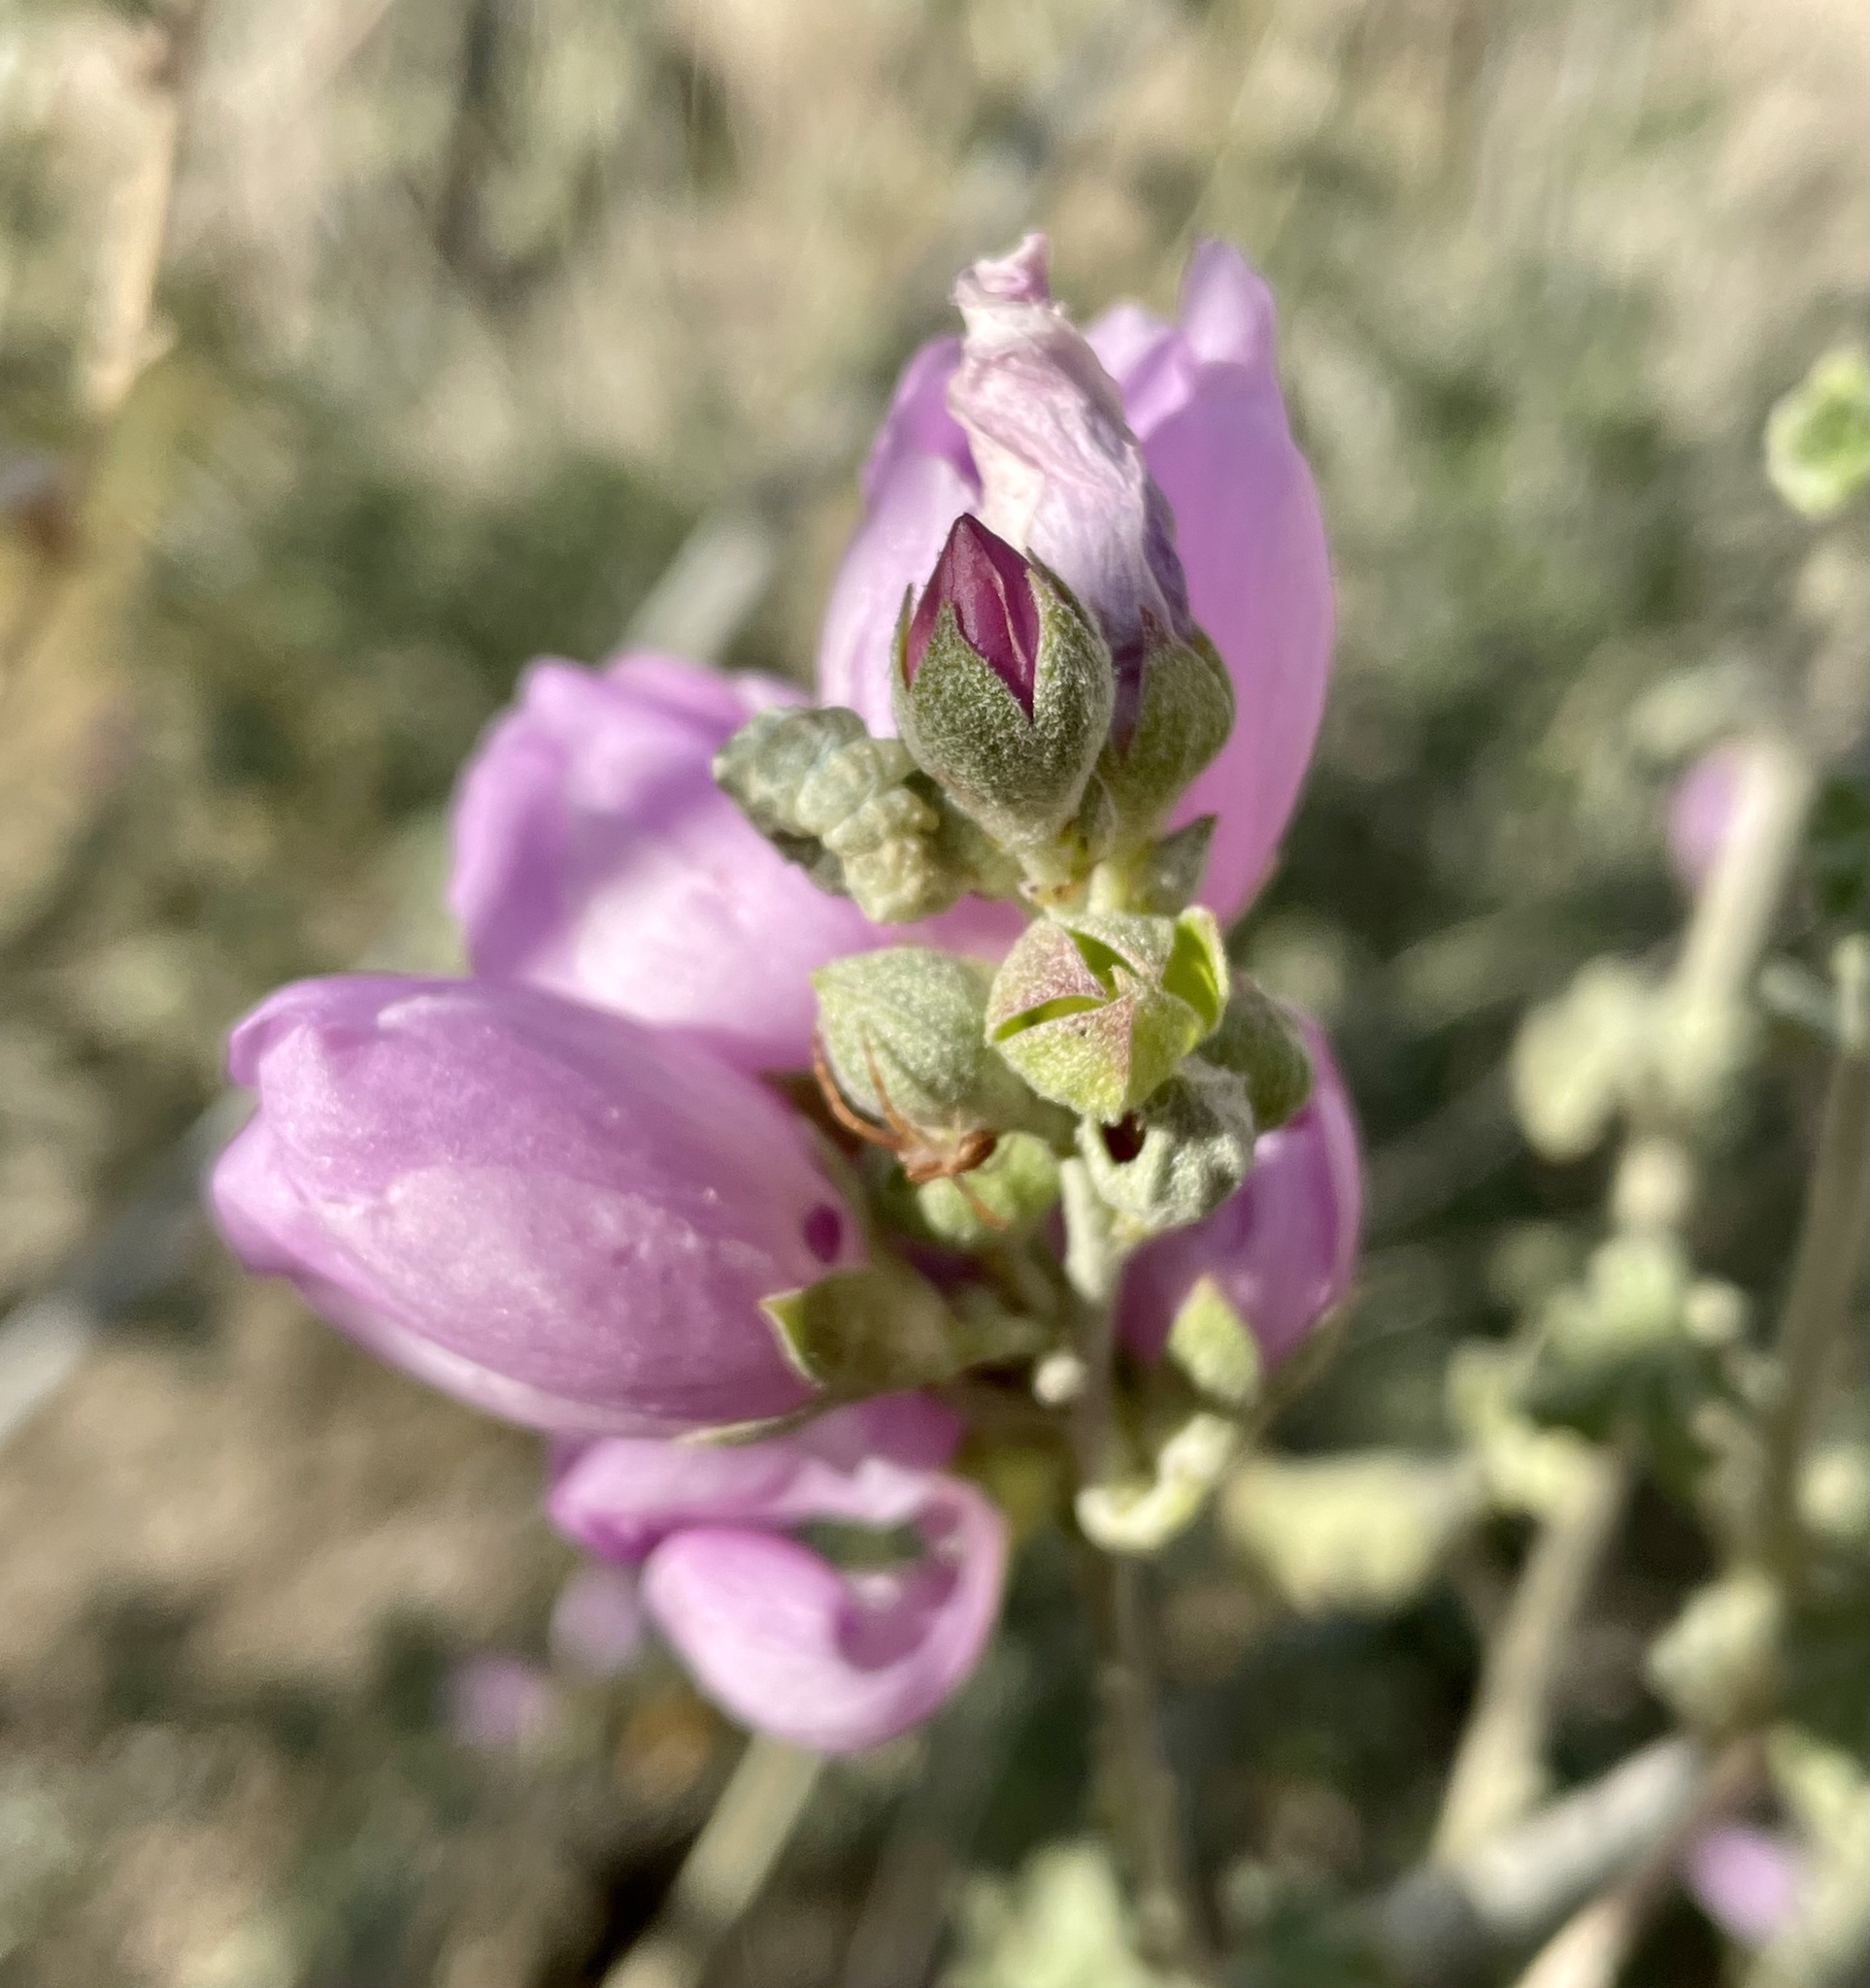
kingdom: Plantae
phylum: Tracheophyta
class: Magnoliopsida
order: Malvales
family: Malvaceae
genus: Malacothamnus
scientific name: Malacothamnus fasciculatus
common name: Sant cruz island bush-mallow
